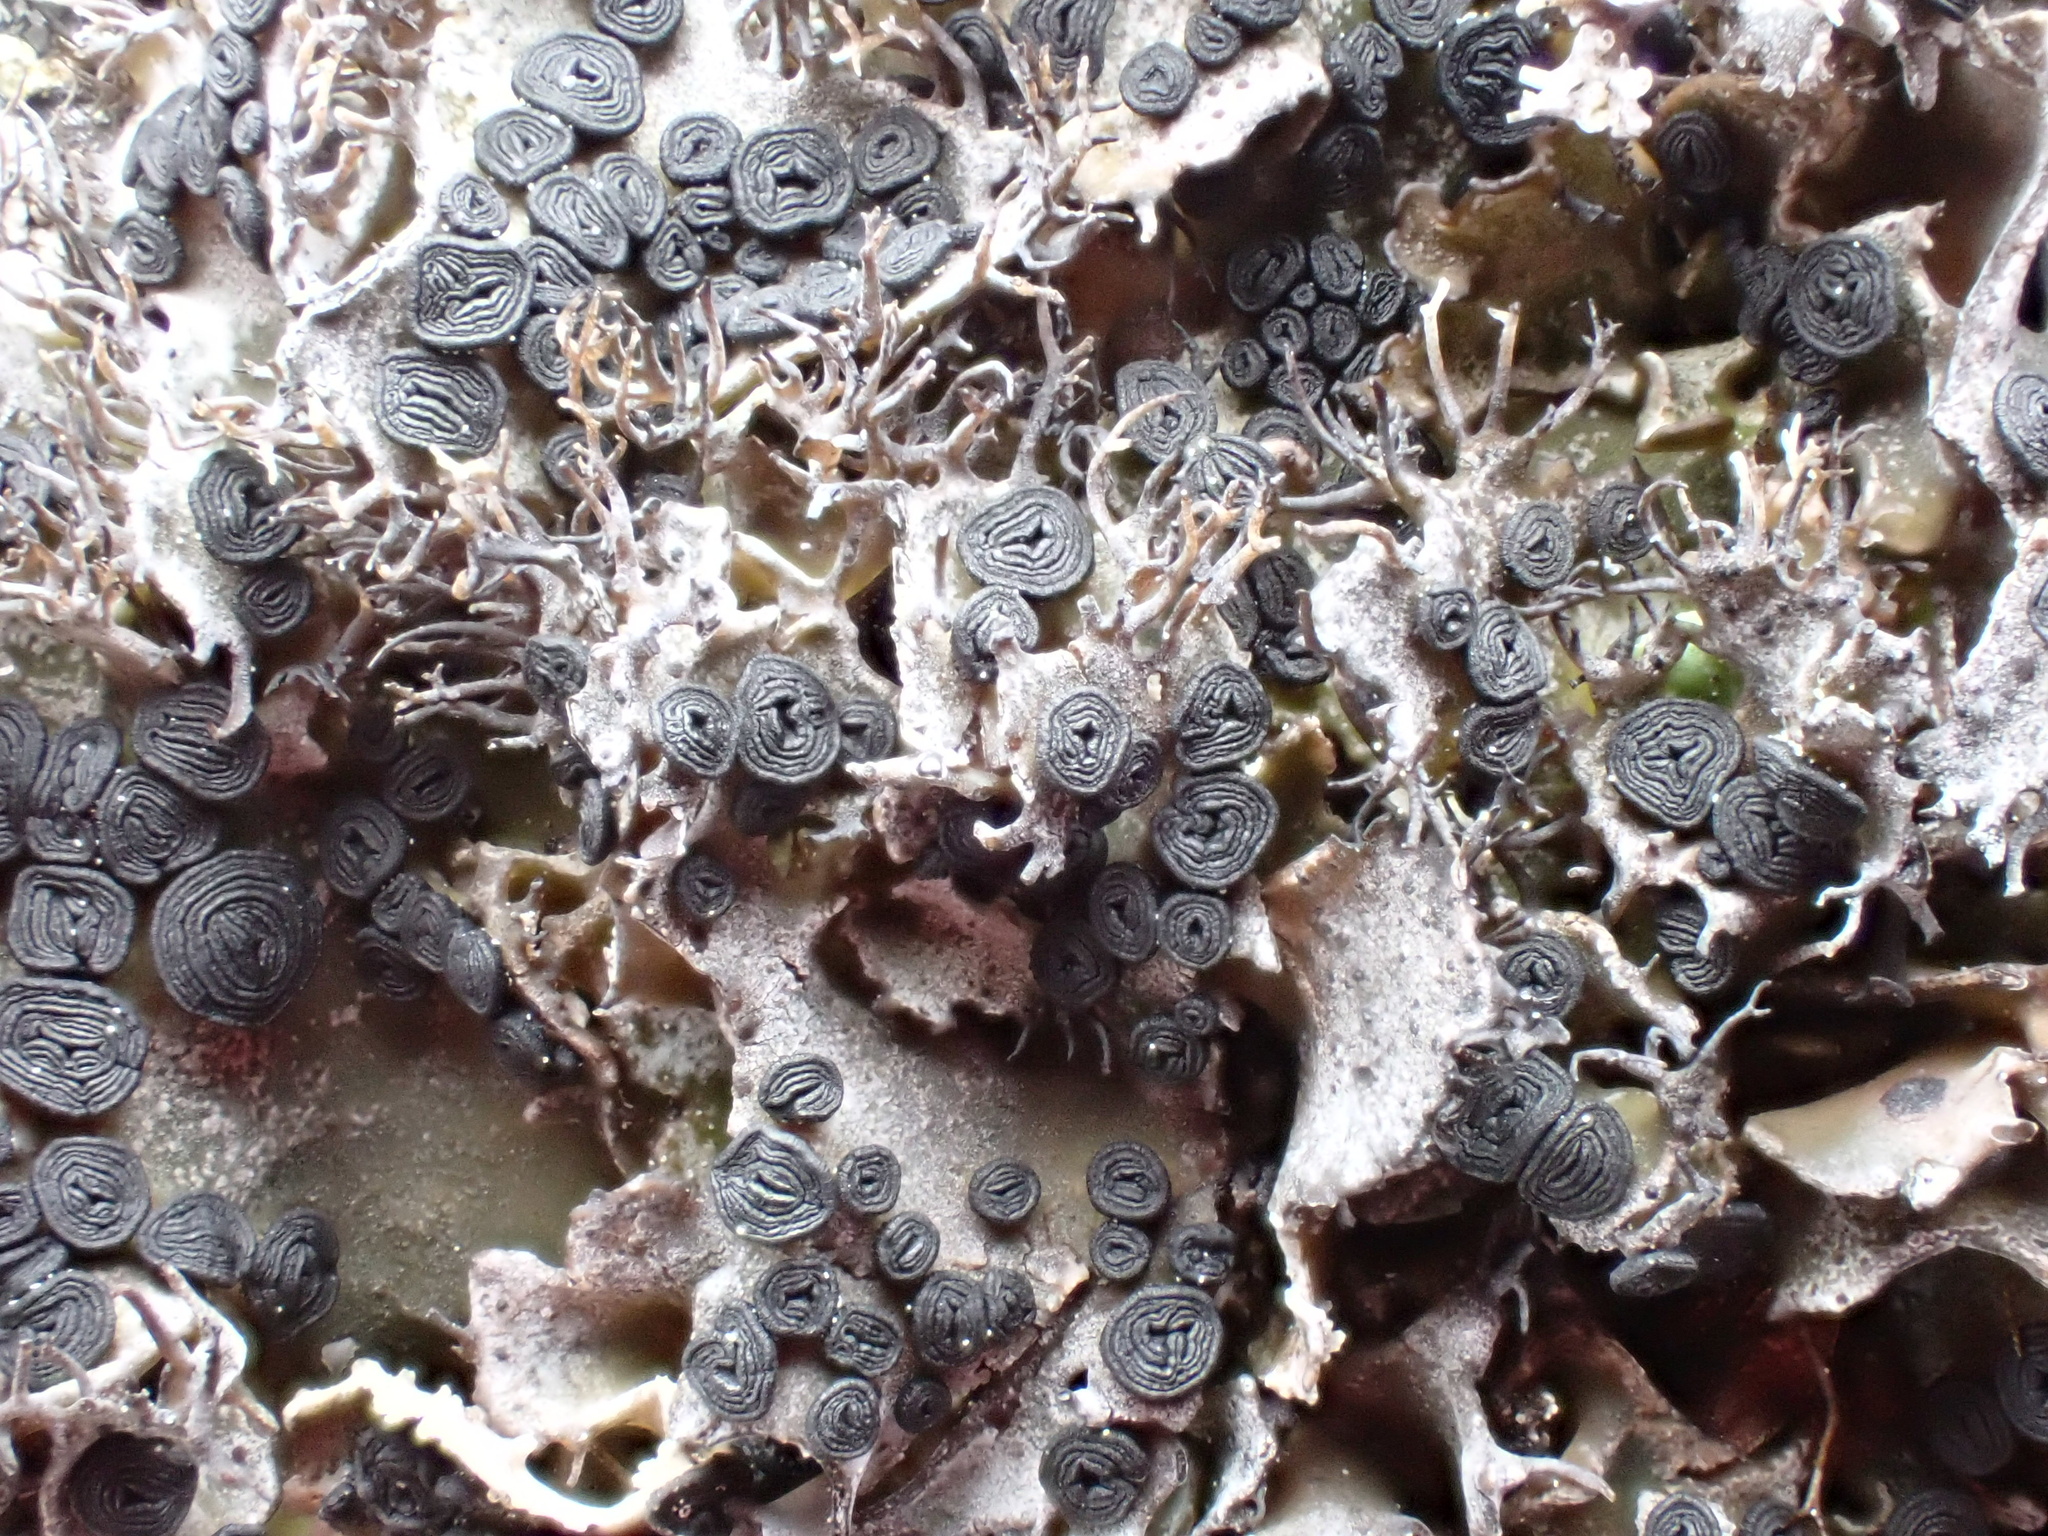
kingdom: Fungi
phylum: Ascomycota
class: Lecanoromycetes
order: Umbilicariales
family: Umbilicariaceae
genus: Umbilicaria
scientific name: Umbilicaria cylindrica
